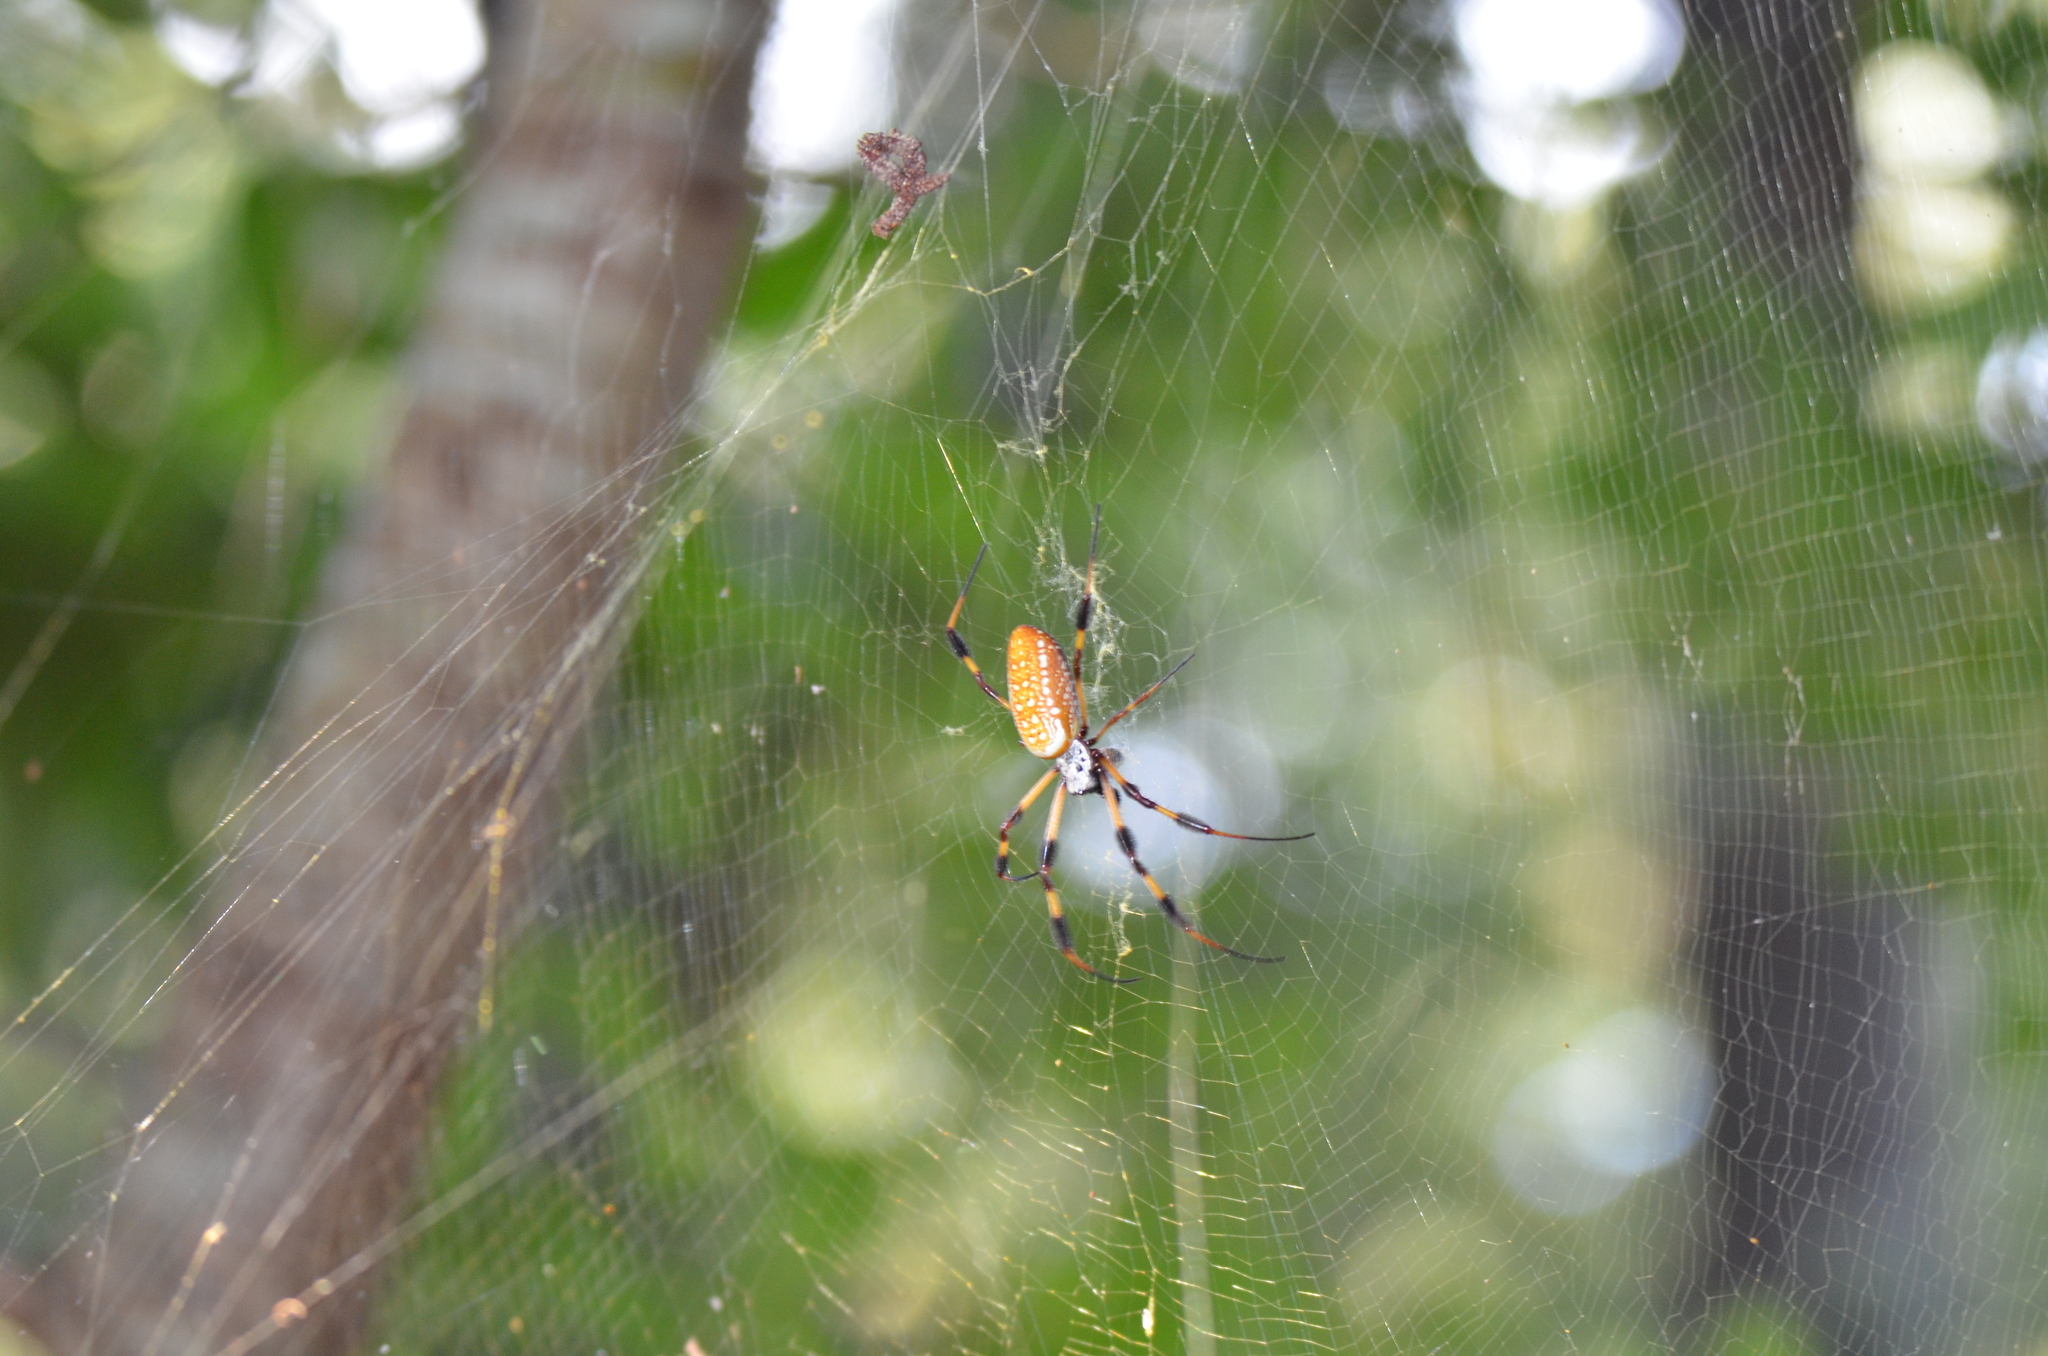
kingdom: Animalia
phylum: Arthropoda
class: Arachnida
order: Araneae
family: Araneidae
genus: Trichonephila
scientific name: Trichonephila clavipes
